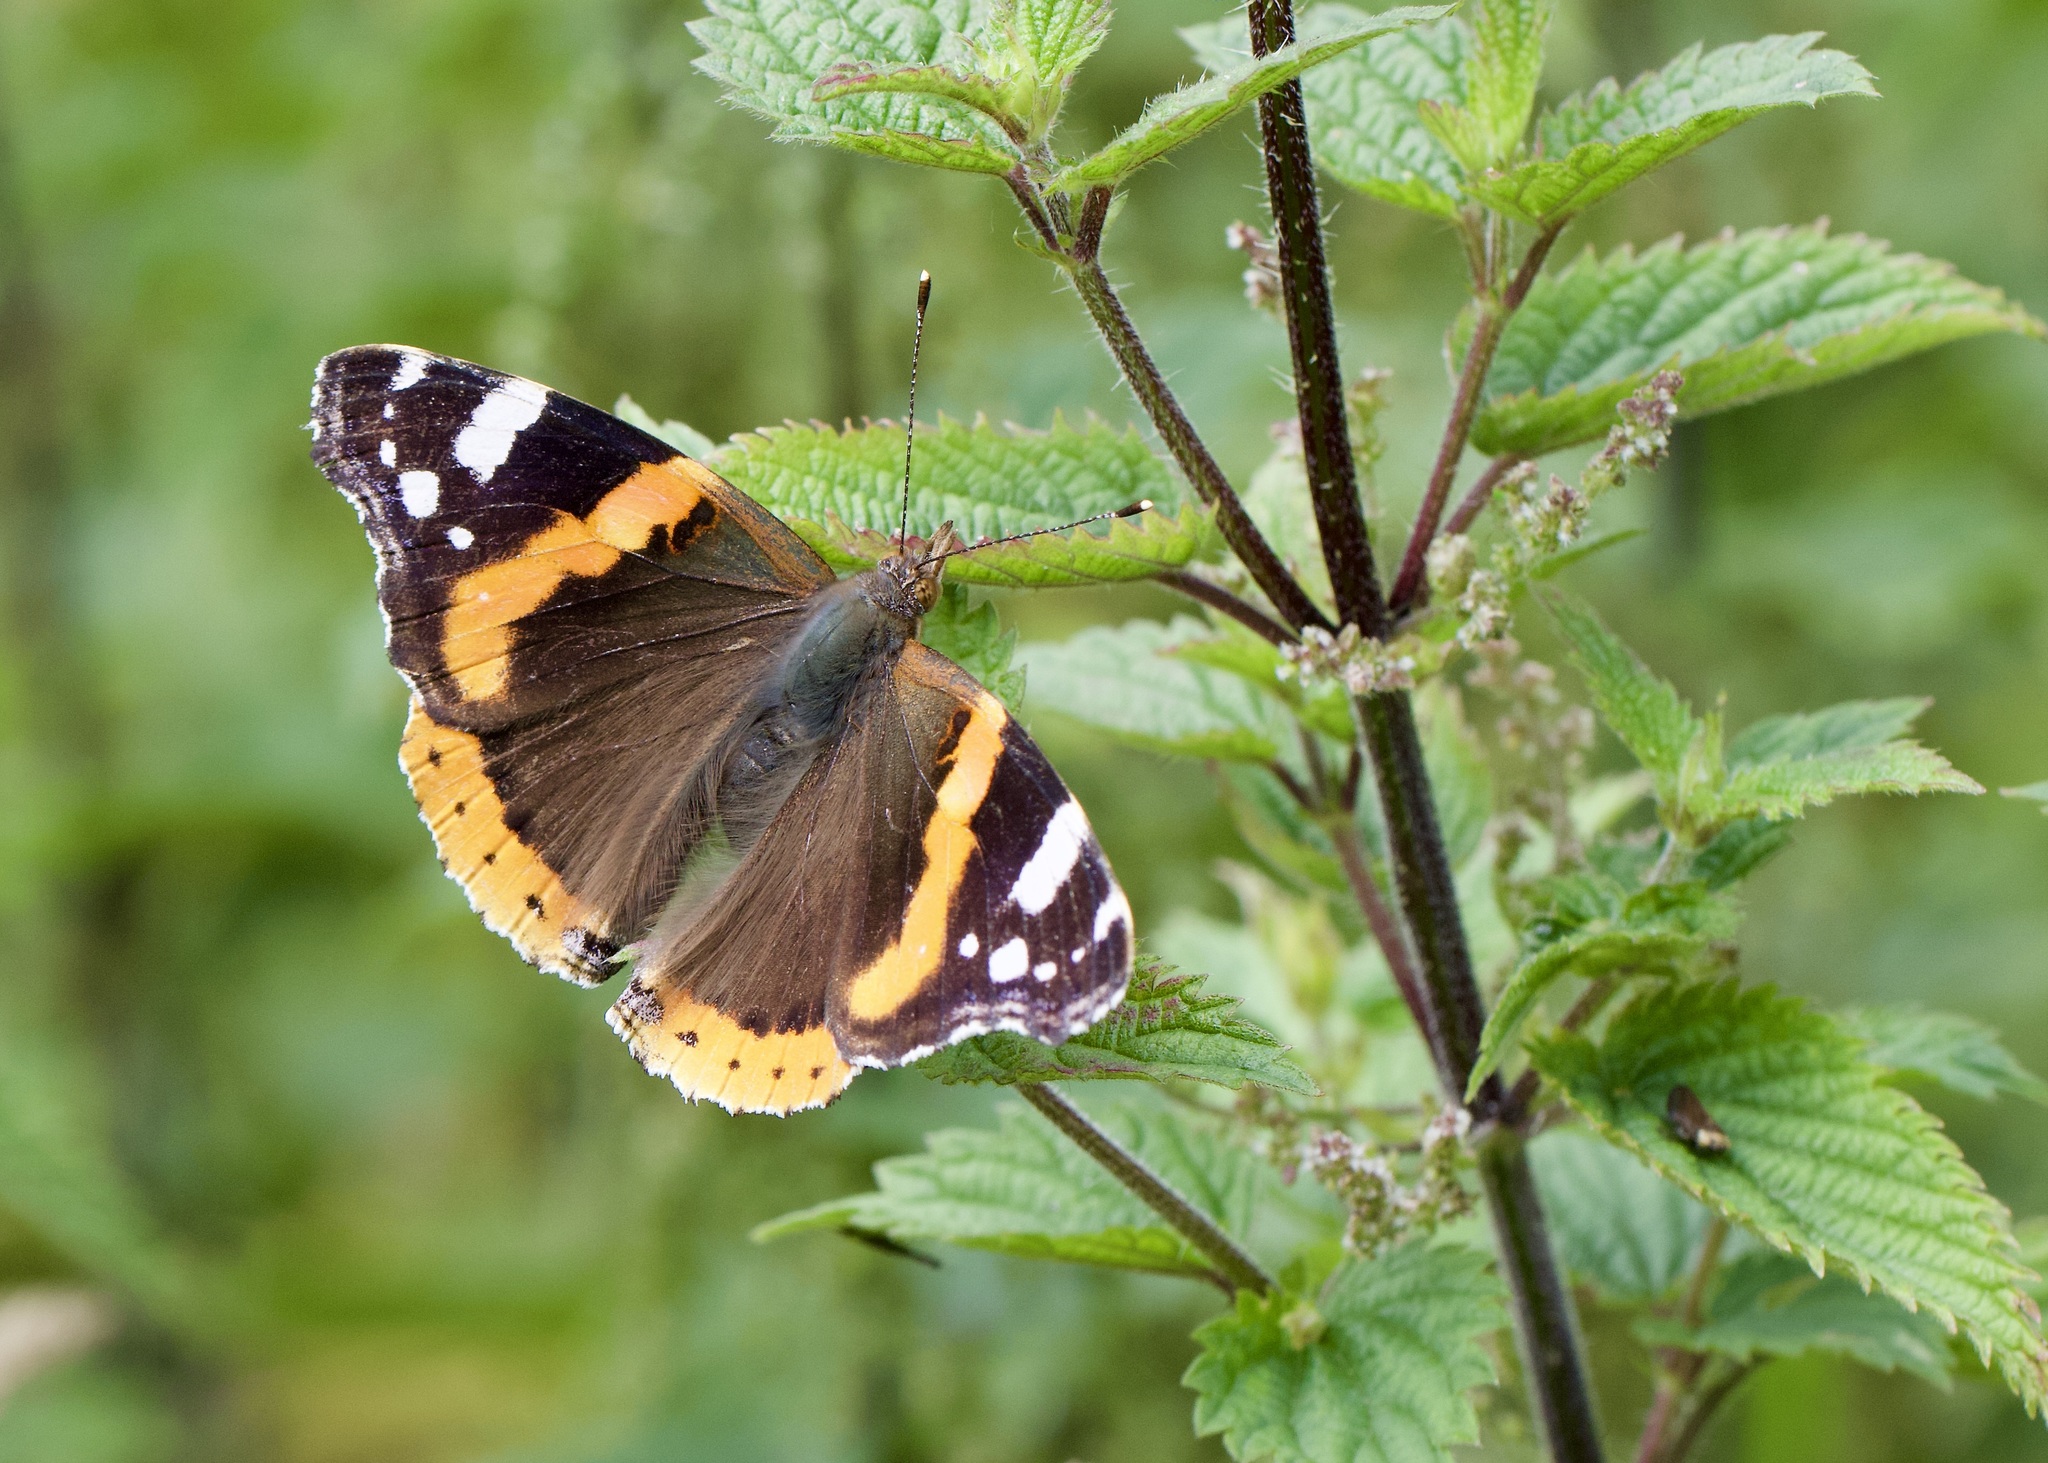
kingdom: Animalia
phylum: Arthropoda
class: Insecta
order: Lepidoptera
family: Nymphalidae
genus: Vanessa
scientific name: Vanessa atalanta
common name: Red admiral
